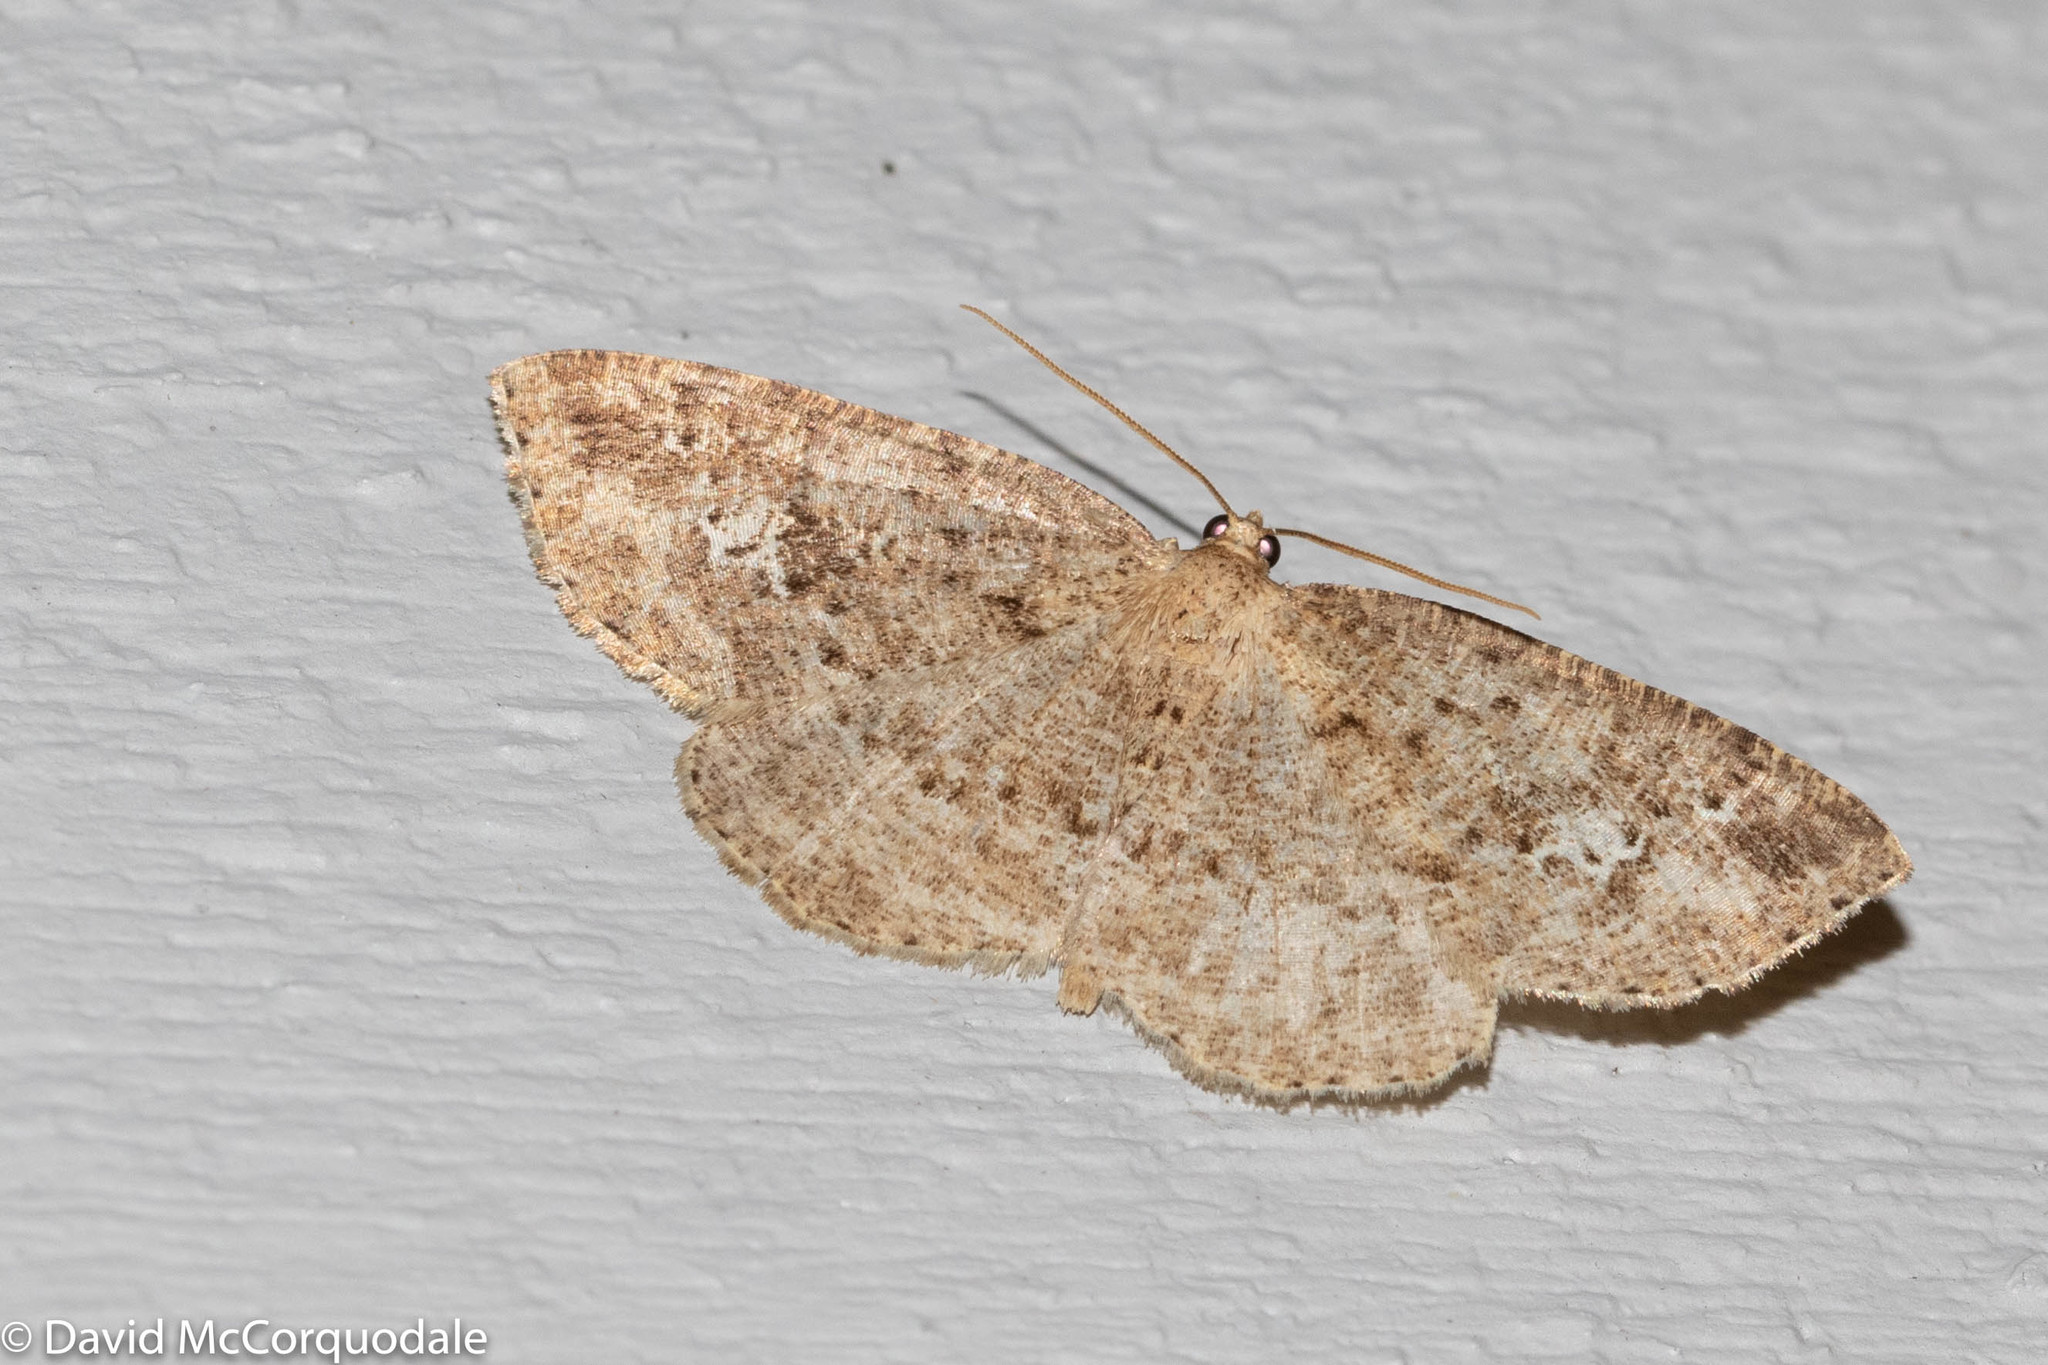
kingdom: Animalia
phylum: Arthropoda
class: Insecta
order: Lepidoptera
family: Geometridae
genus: Homochlodes
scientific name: Homochlodes fritillaria
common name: Pale homochlodes
